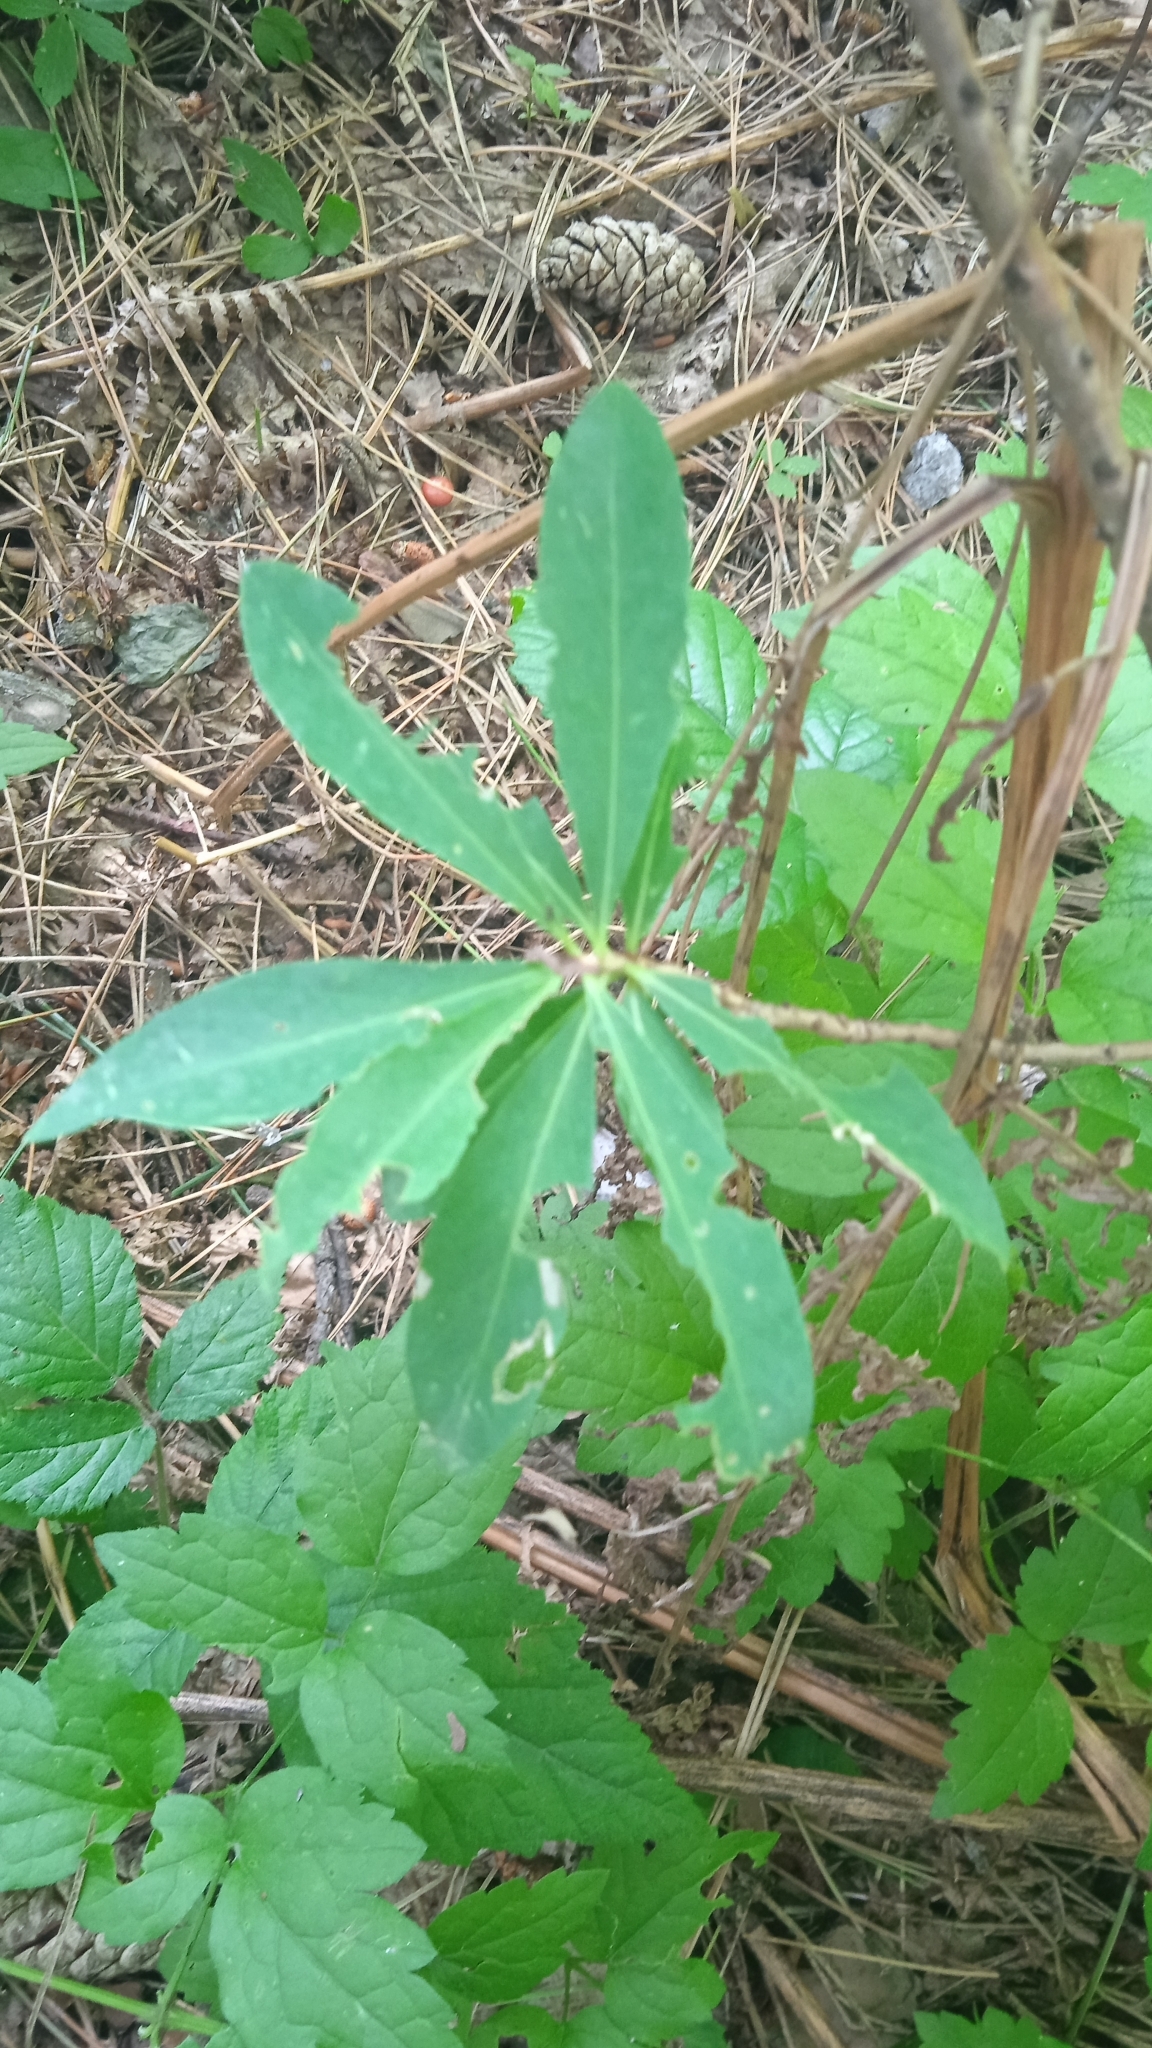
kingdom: Plantae
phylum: Tracheophyta
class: Magnoliopsida
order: Malvales
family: Thymelaeaceae
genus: Daphne
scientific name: Daphne mezereum
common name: Mezereon
